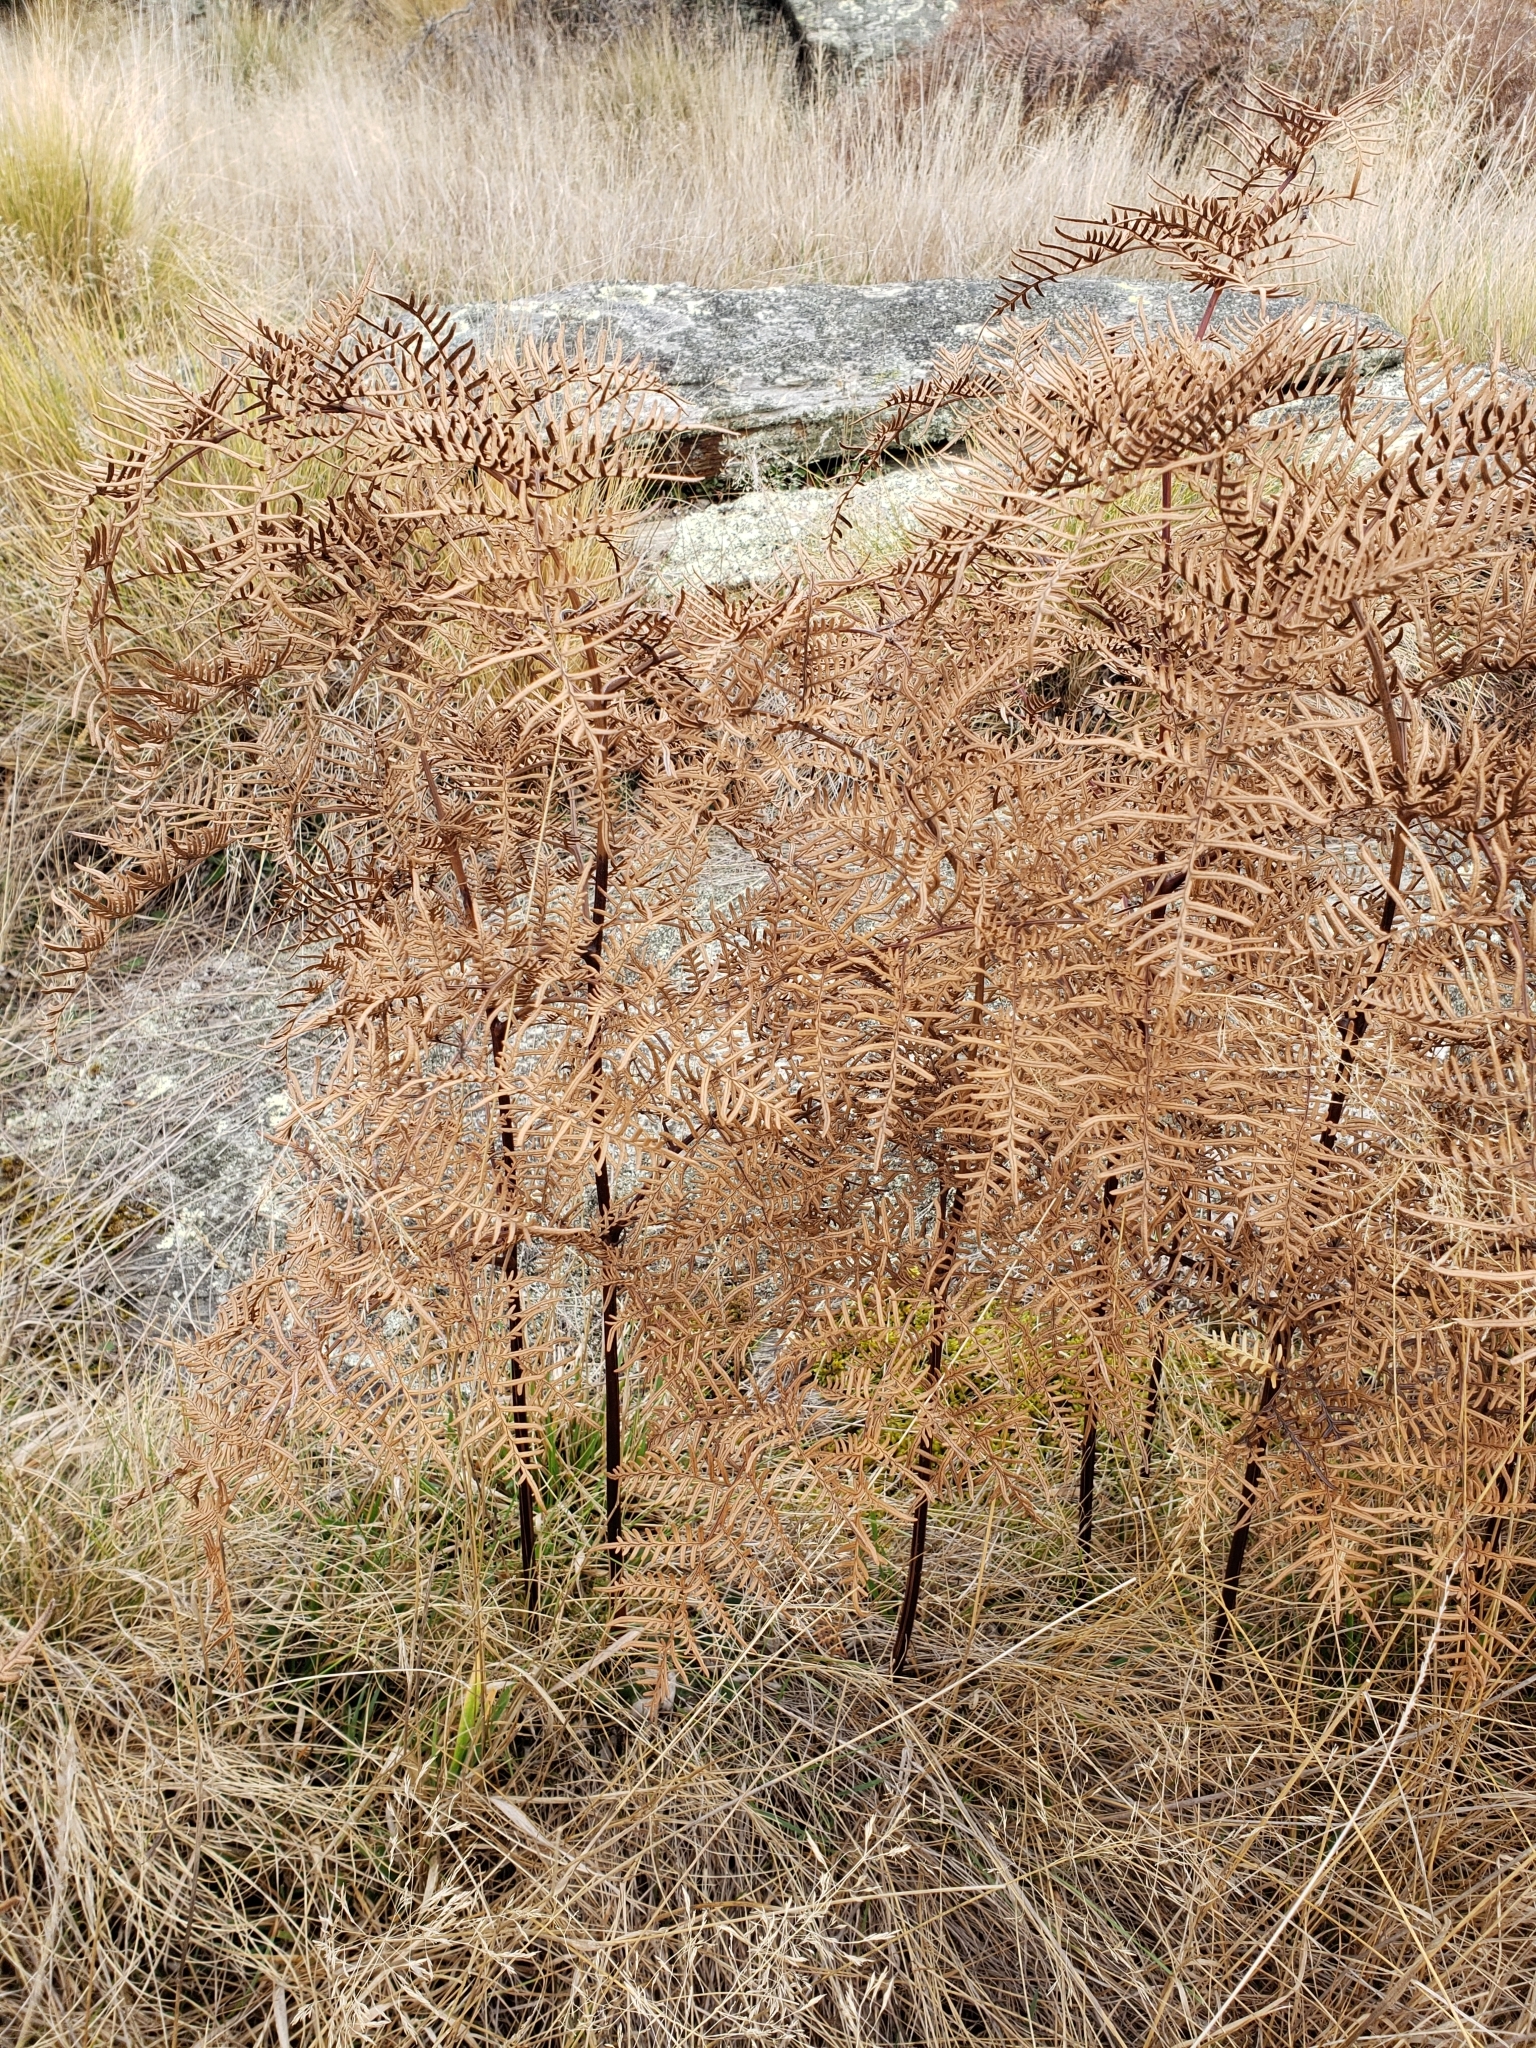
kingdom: Plantae
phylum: Tracheophyta
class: Polypodiopsida
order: Polypodiales
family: Dennstaedtiaceae
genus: Pteridium
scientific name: Pteridium esculentum
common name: Bracken fern
